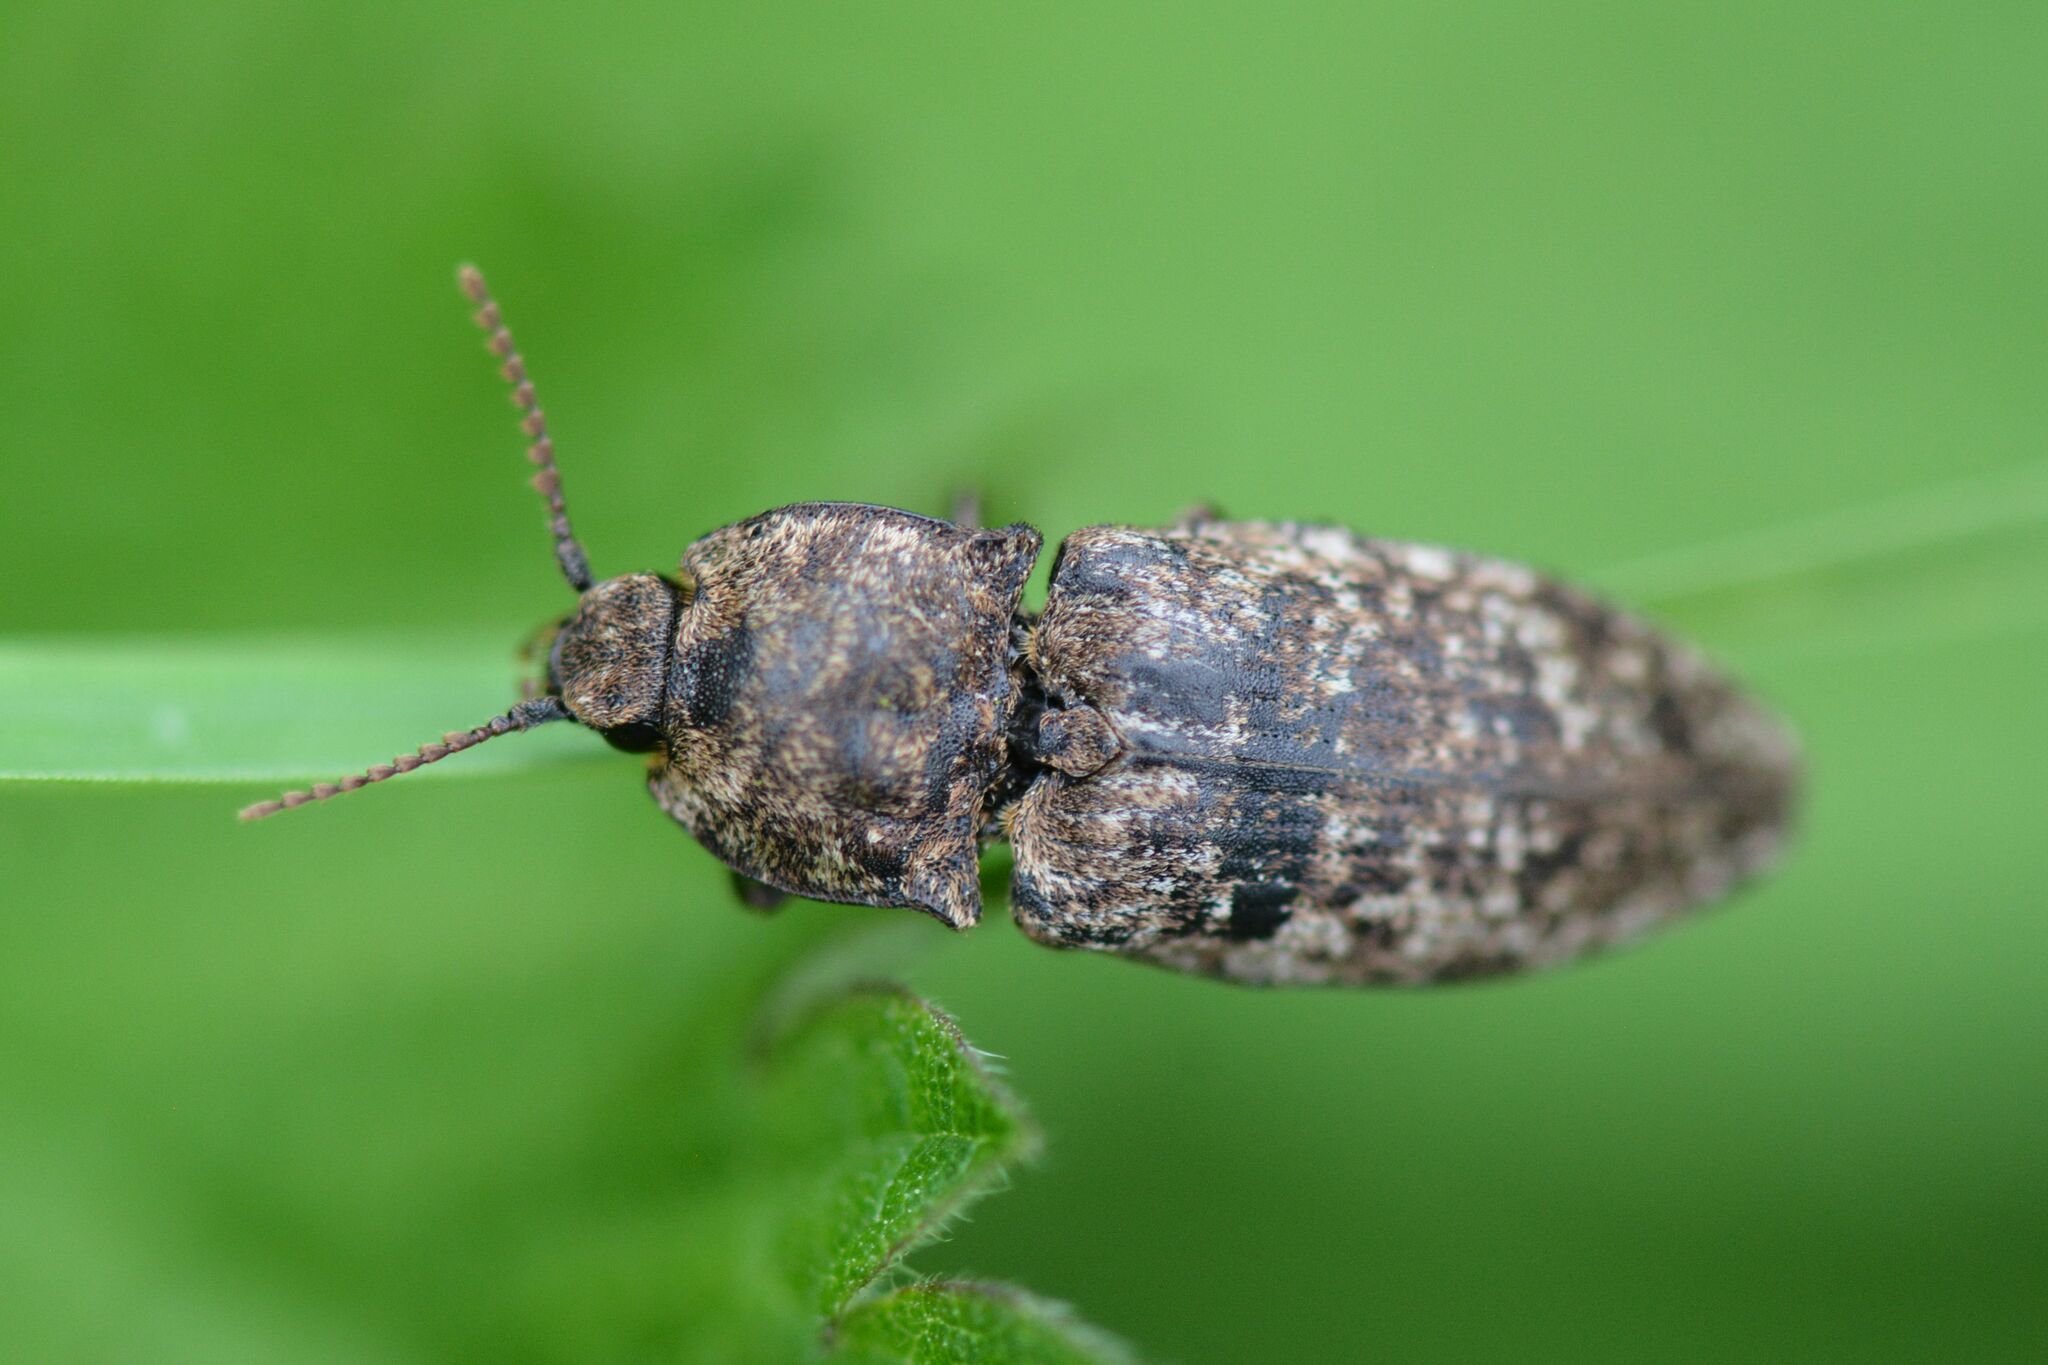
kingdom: Animalia
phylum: Arthropoda
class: Insecta
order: Coleoptera
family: Elateridae
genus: Agrypnus
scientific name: Agrypnus murinus
